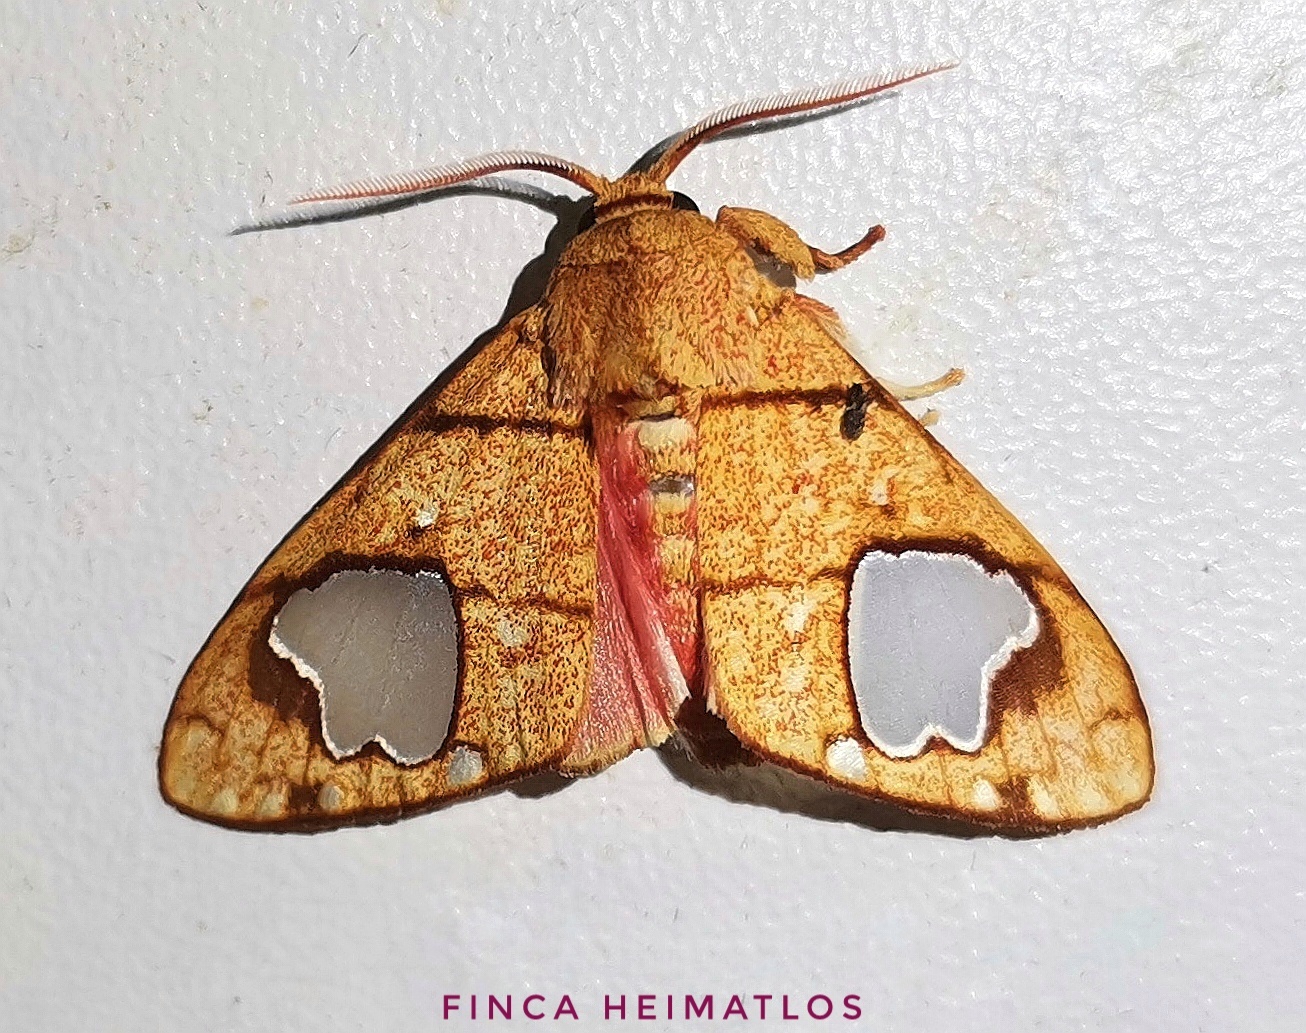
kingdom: Animalia
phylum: Arthropoda
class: Insecta
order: Lepidoptera
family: Erebidae
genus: Zatrephes
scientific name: Zatrephes trailii
